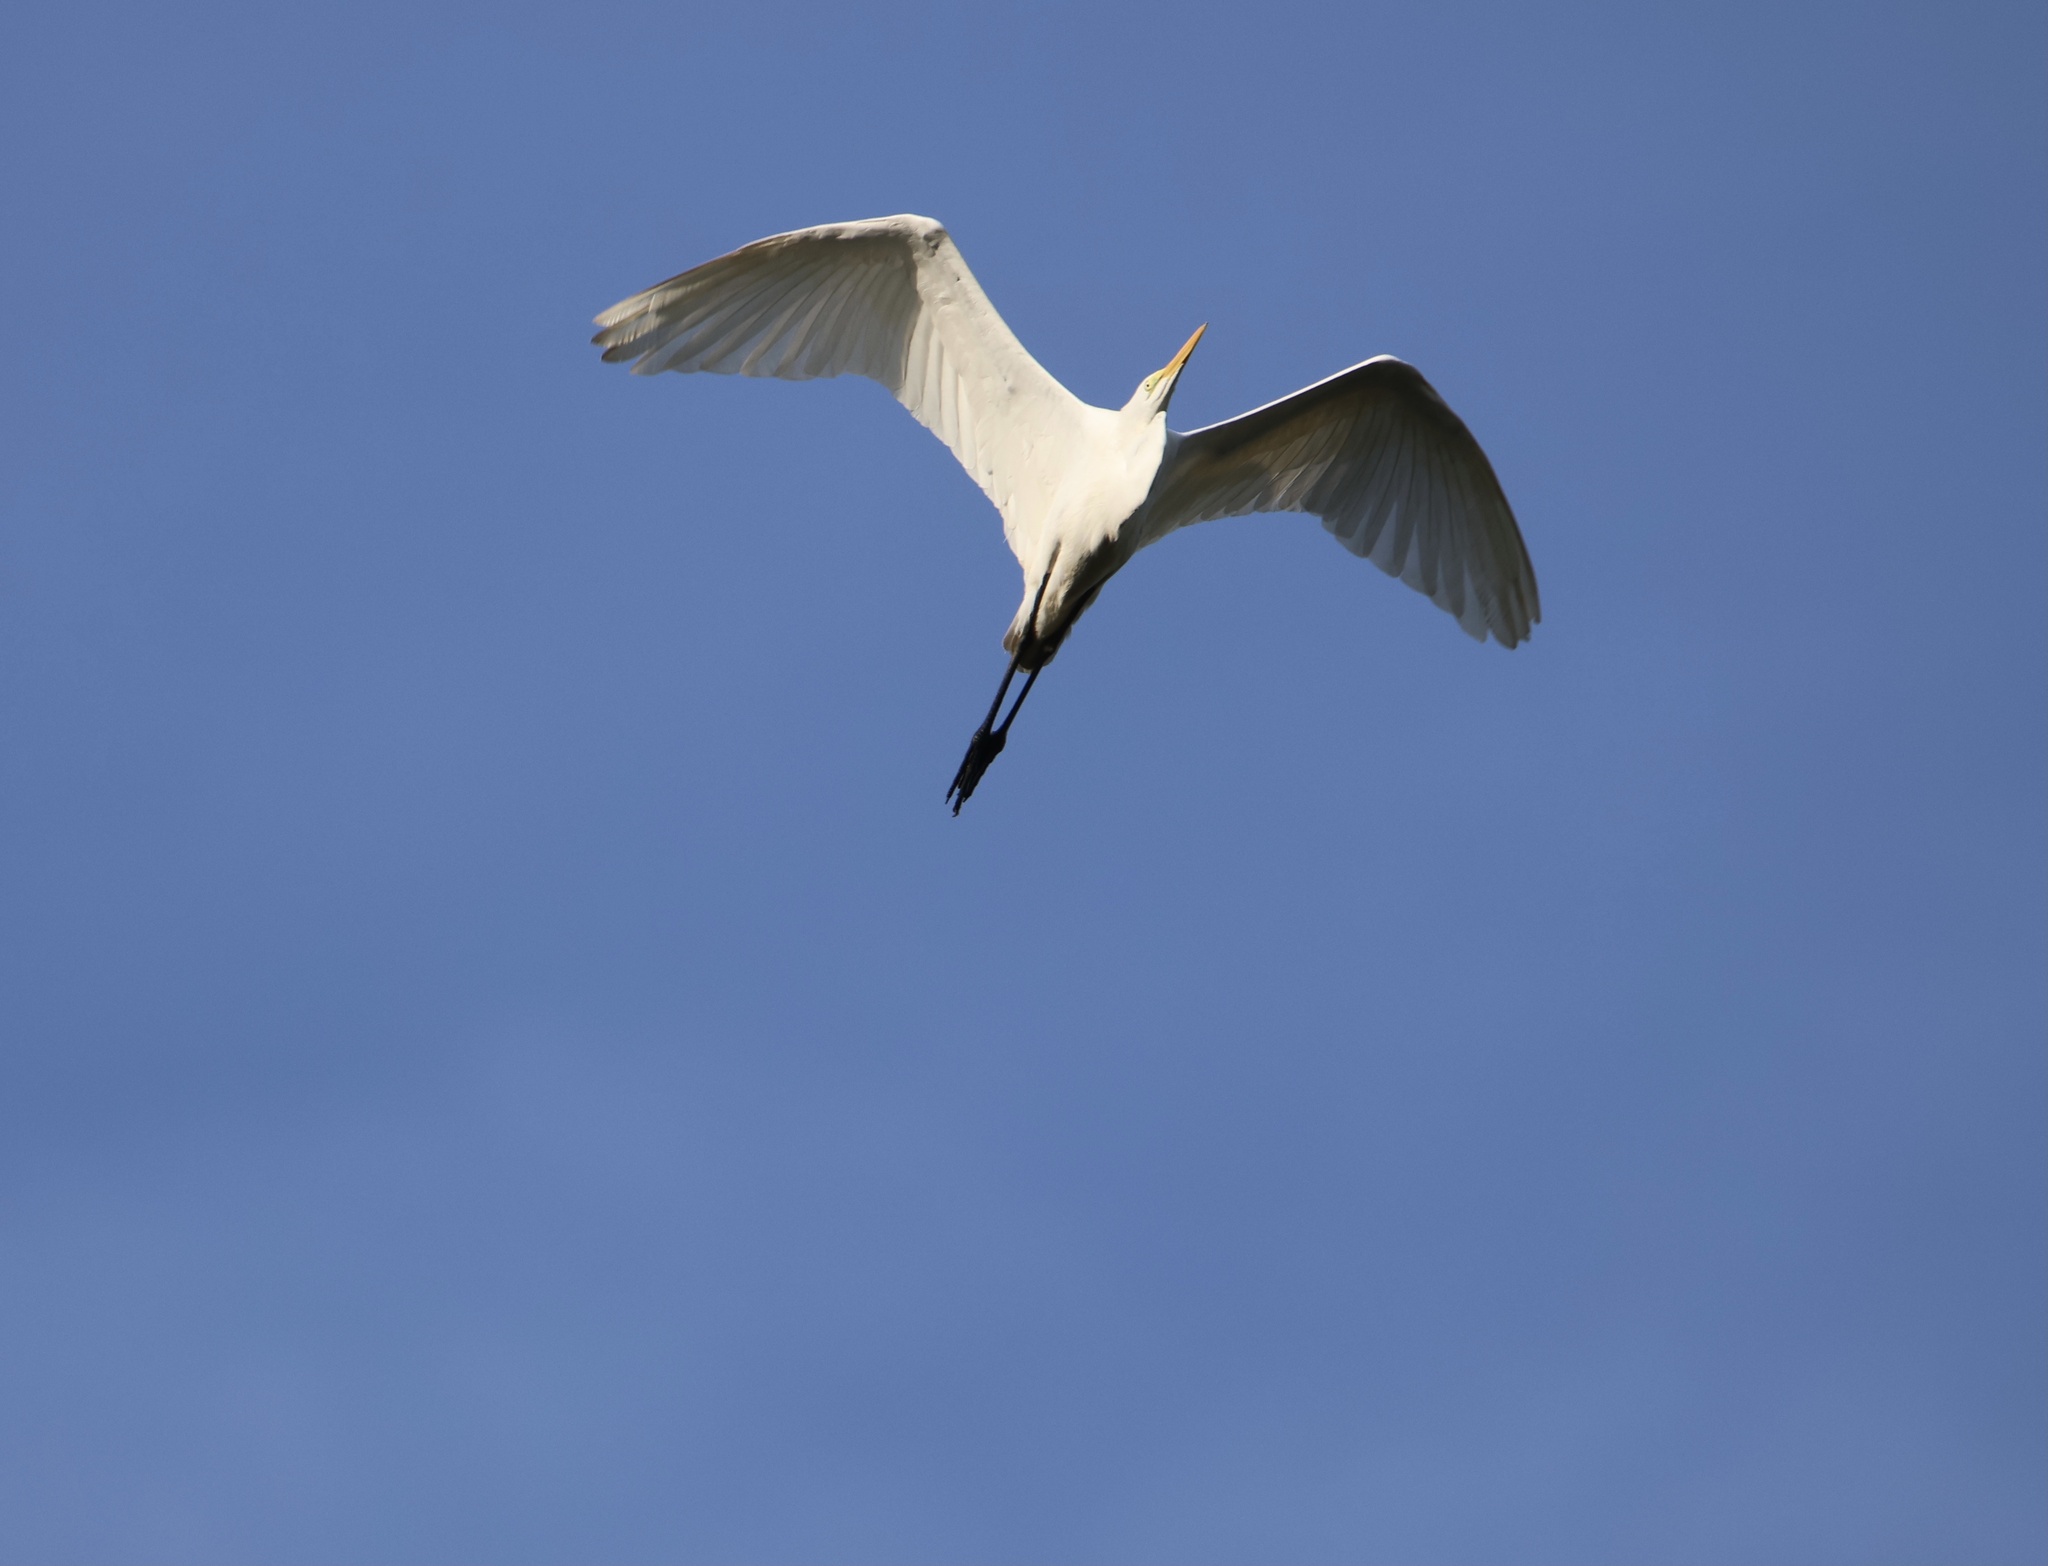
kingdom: Animalia
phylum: Chordata
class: Aves
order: Pelecaniformes
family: Ardeidae
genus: Ardea
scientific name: Ardea alba
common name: Great egret
